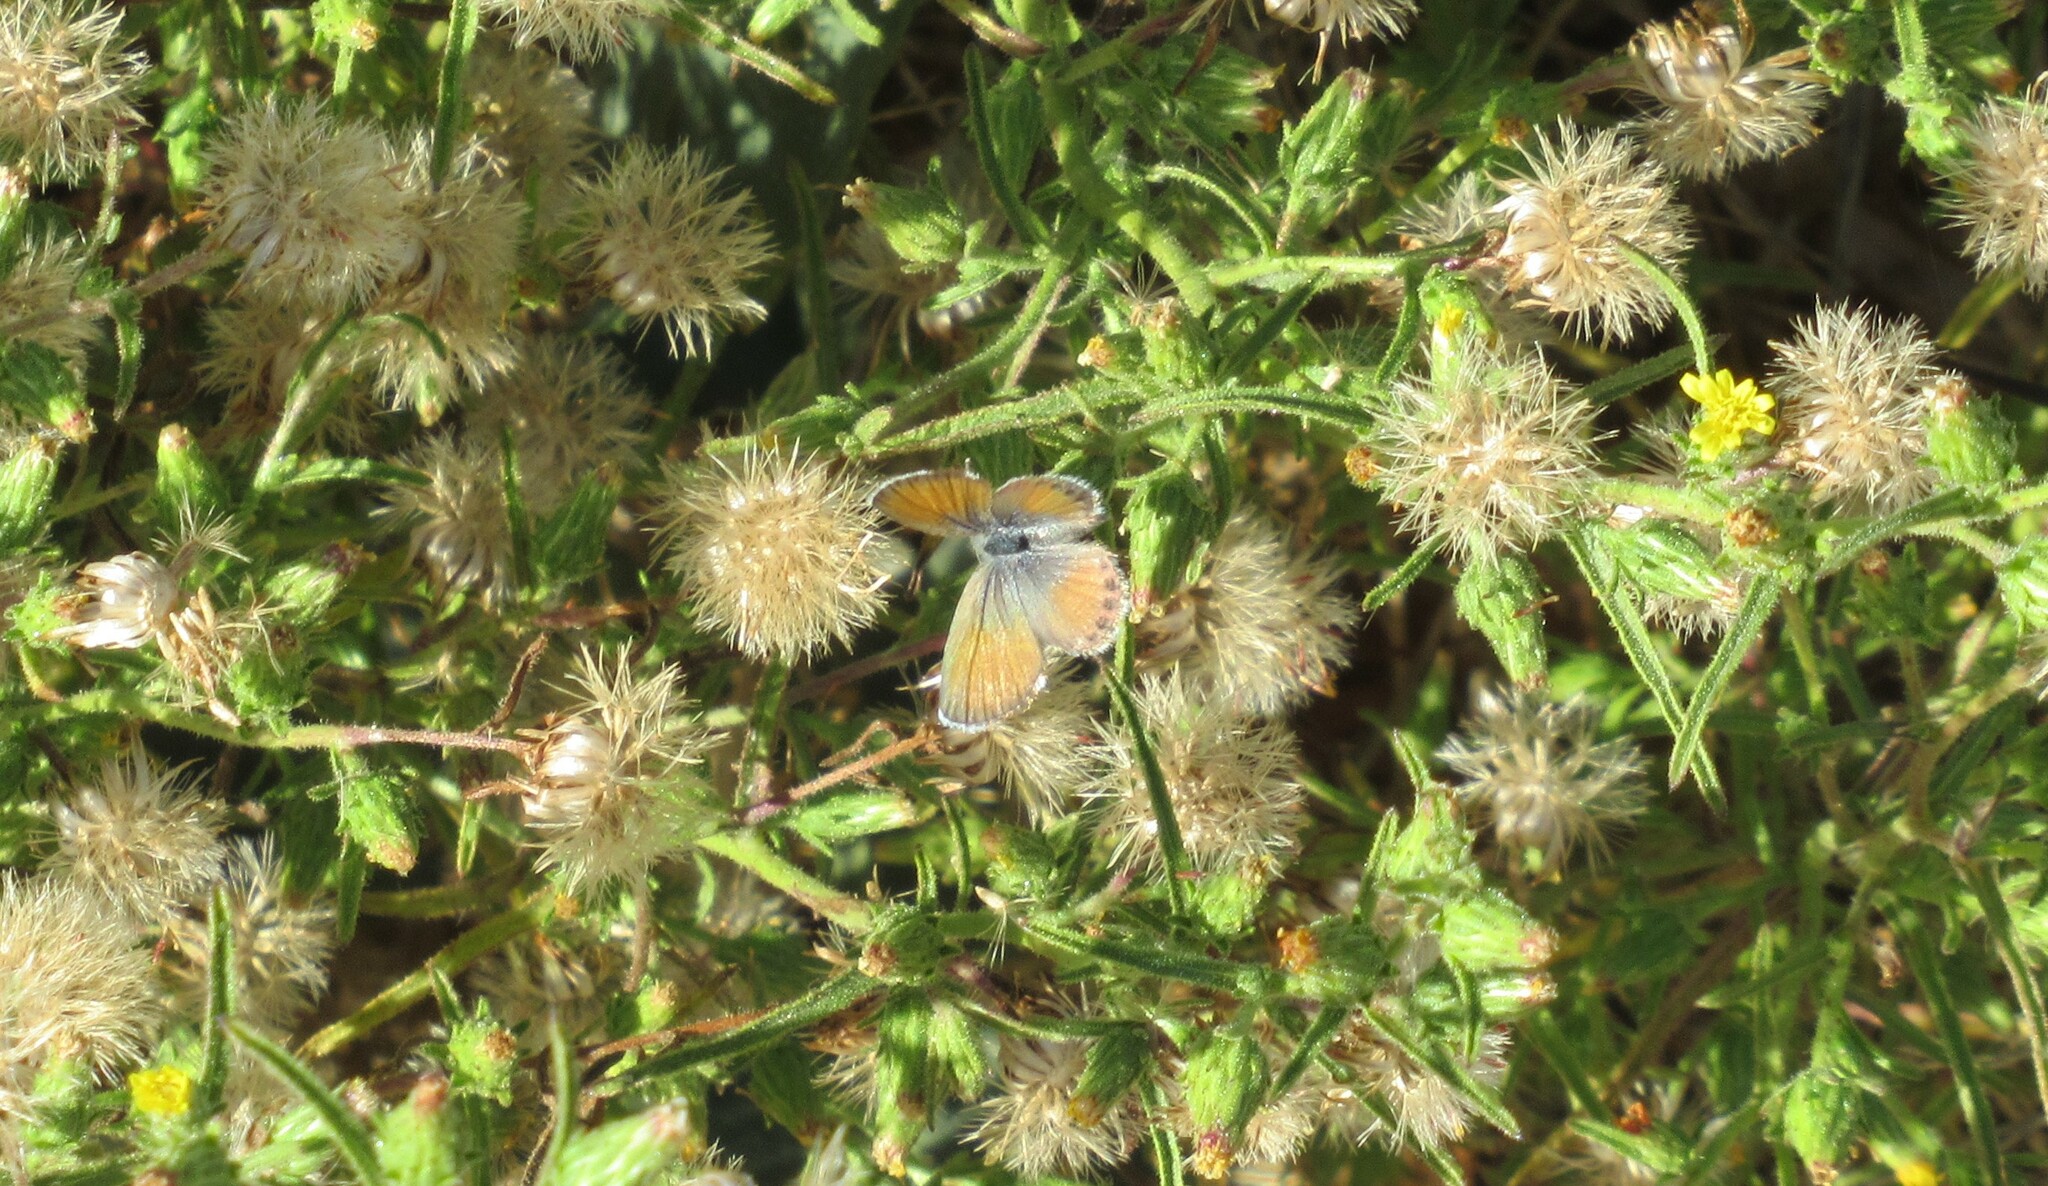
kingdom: Animalia
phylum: Arthropoda
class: Insecta
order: Lepidoptera
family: Lycaenidae
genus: Brephidium
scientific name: Brephidium exilis
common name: Pygmy blue
